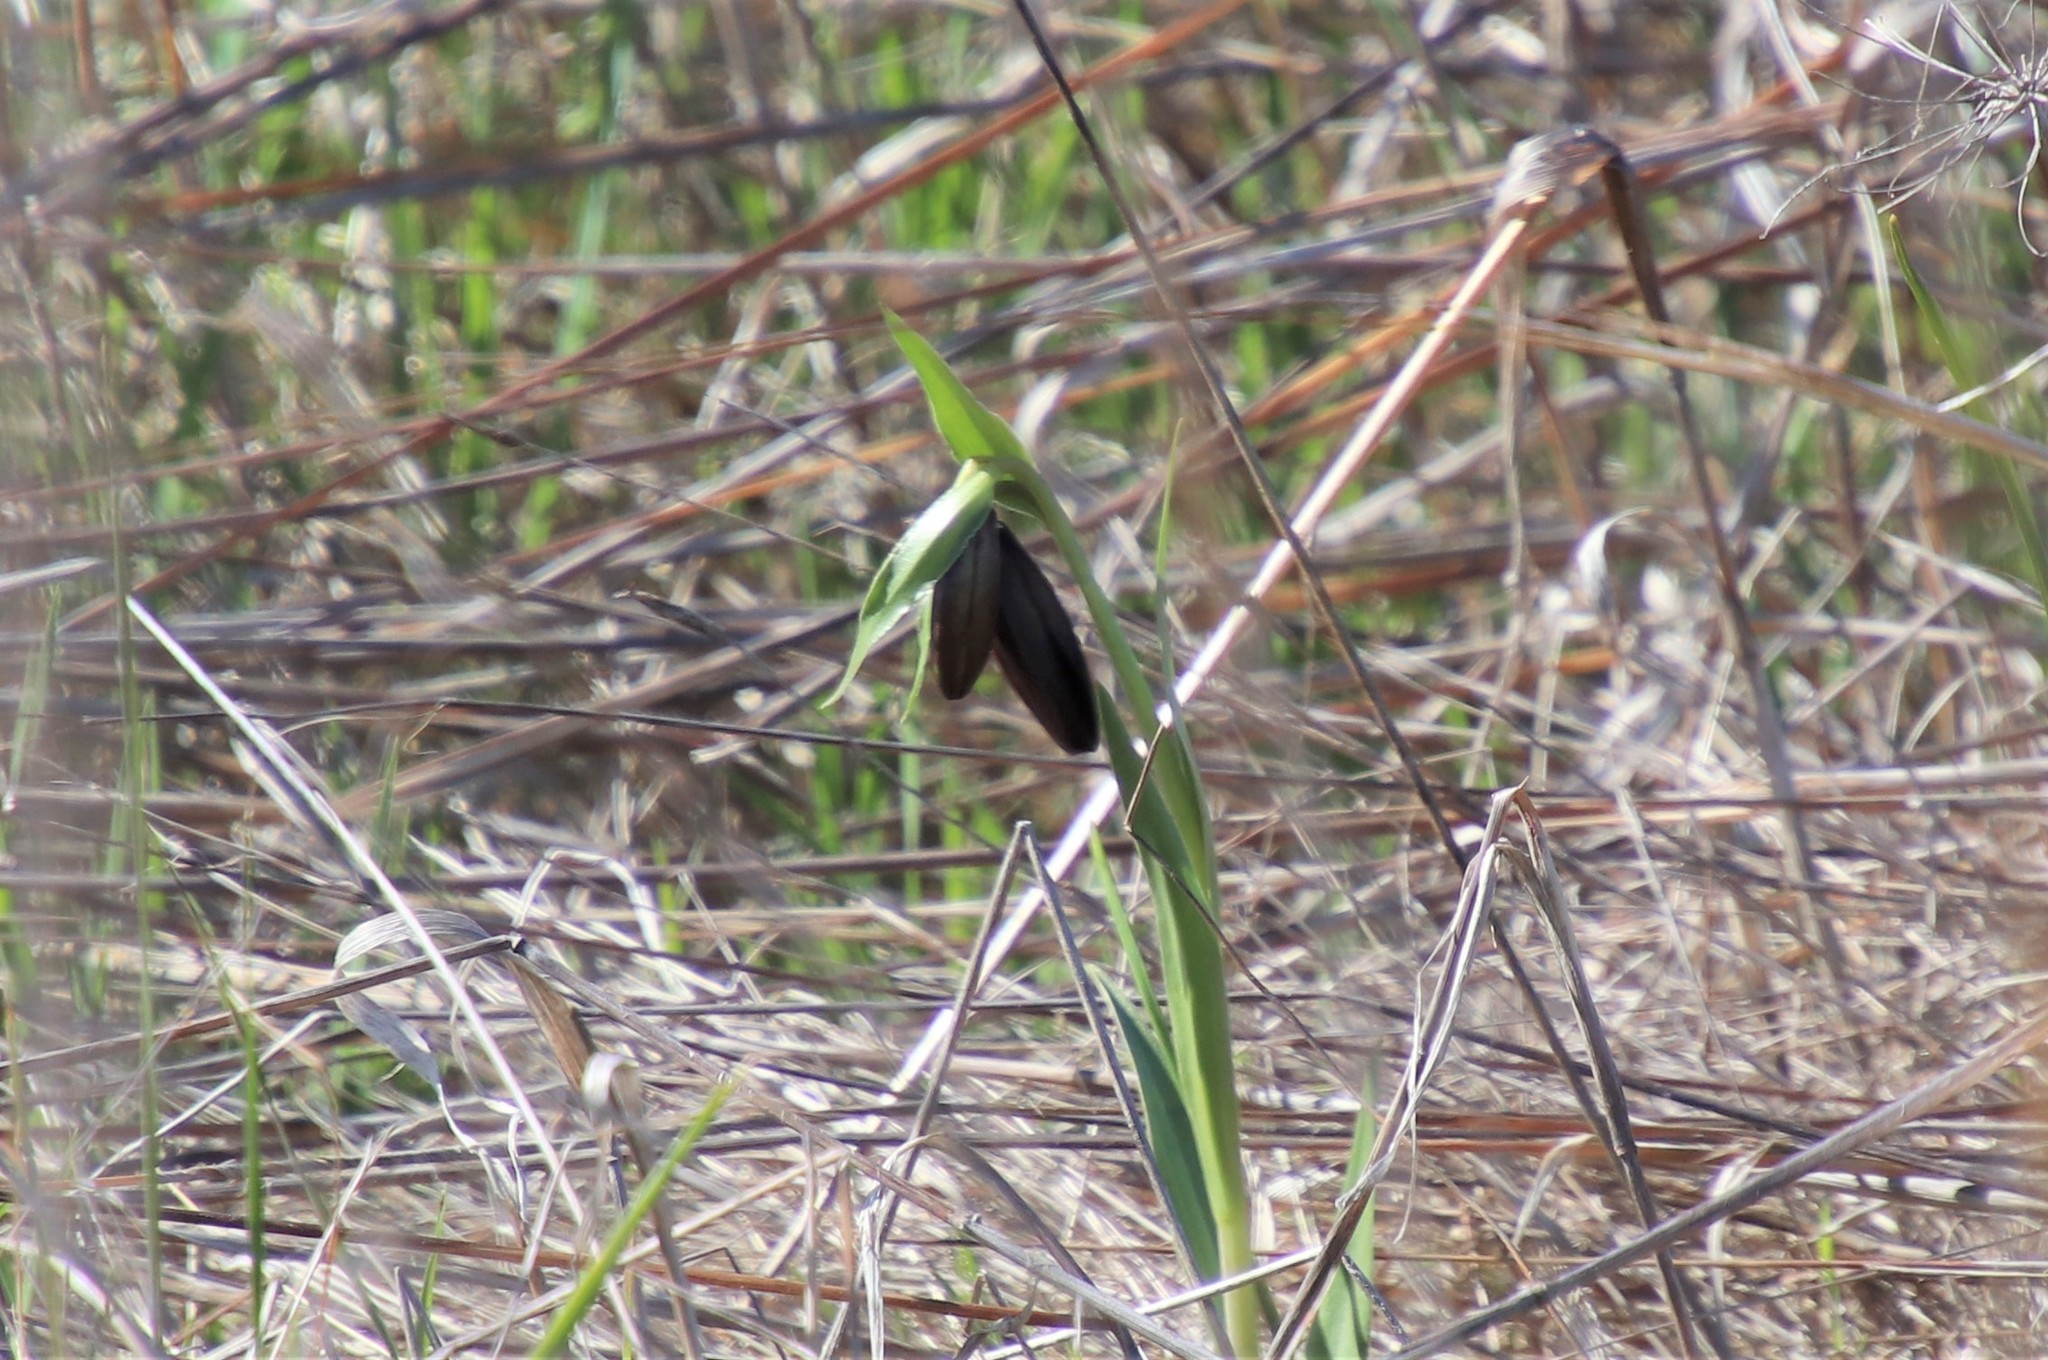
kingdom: Plantae
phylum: Tracheophyta
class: Liliopsida
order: Liliales
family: Liliaceae
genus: Fritillaria
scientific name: Fritillaria biflora
